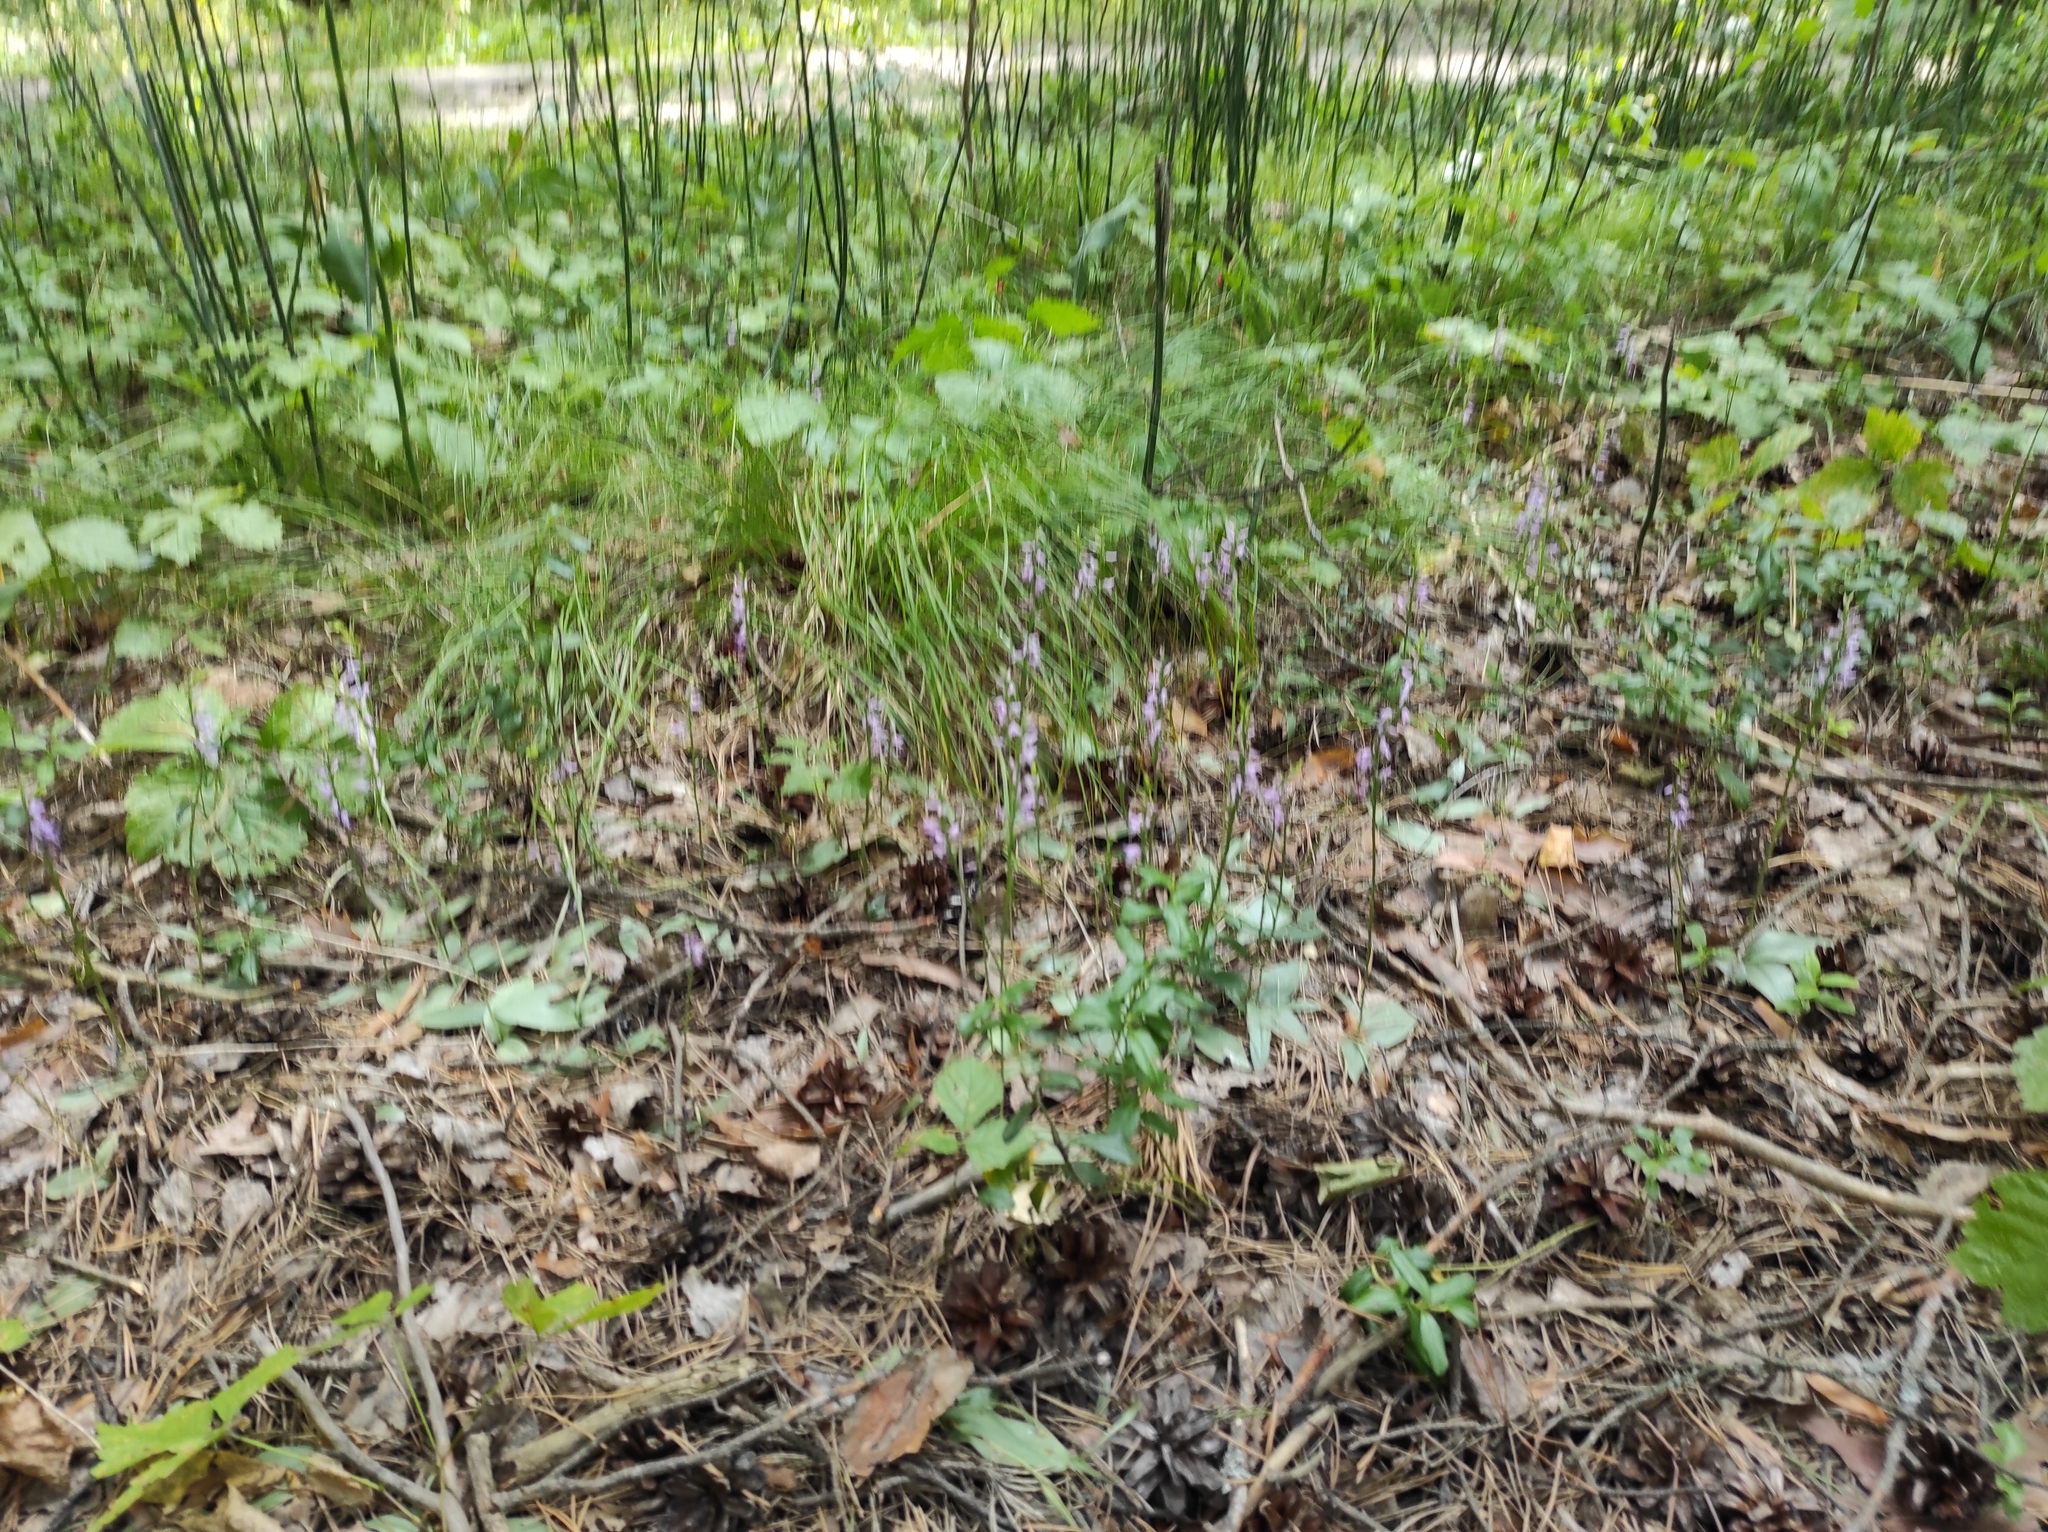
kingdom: Plantae
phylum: Tracheophyta
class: Liliopsida
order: Asparagales
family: Orchidaceae
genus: Hemipilia
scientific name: Hemipilia cucullata
